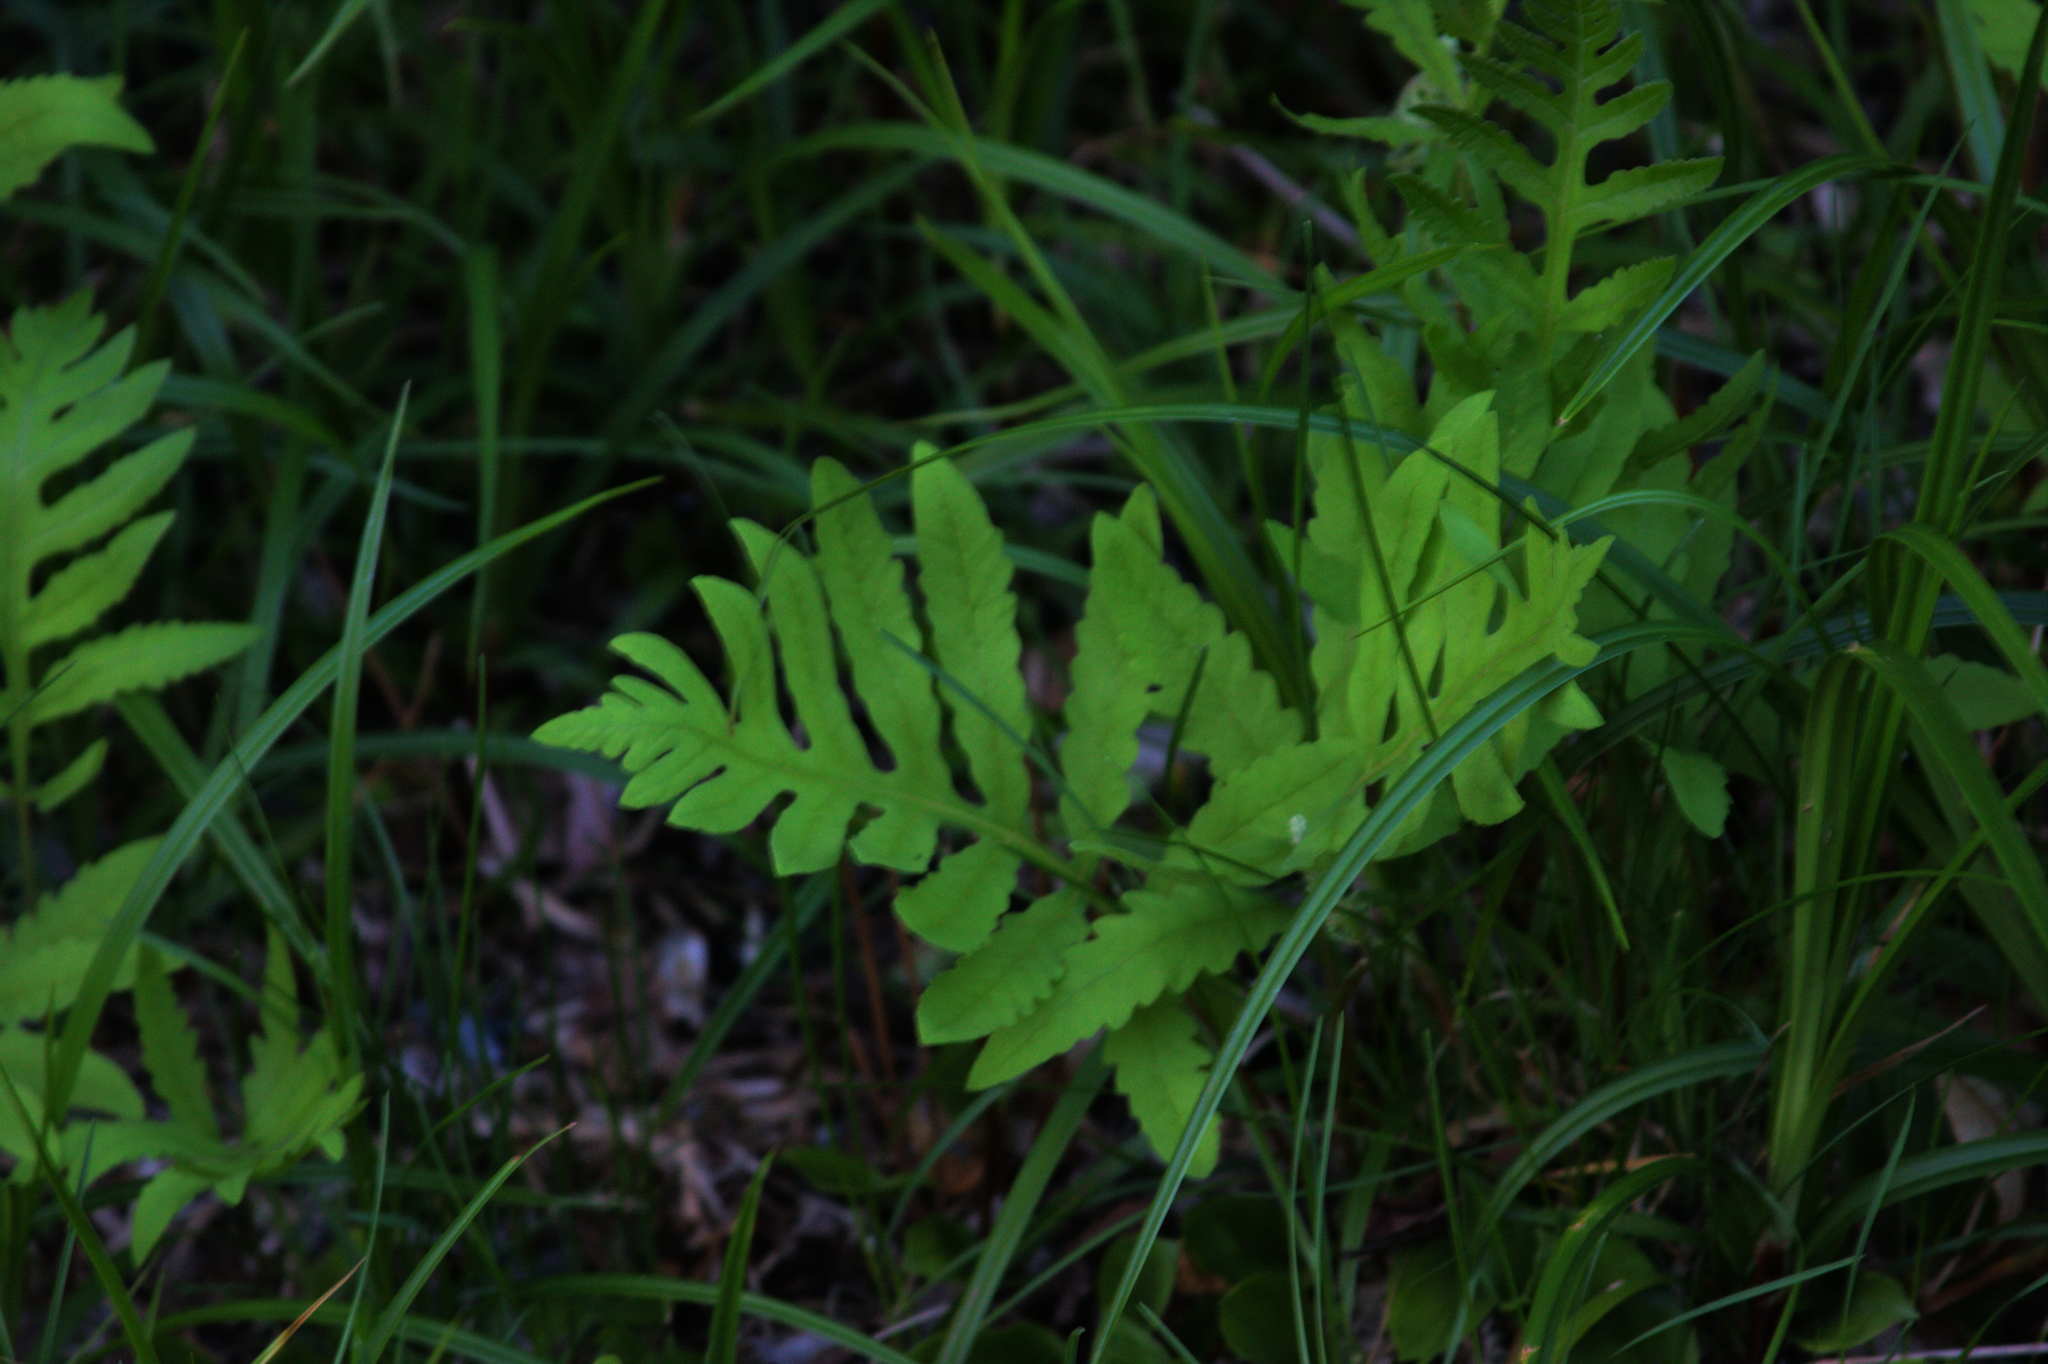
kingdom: Plantae
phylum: Tracheophyta
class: Polypodiopsida
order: Polypodiales
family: Onocleaceae
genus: Onoclea
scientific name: Onoclea sensibilis
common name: Sensitive fern
